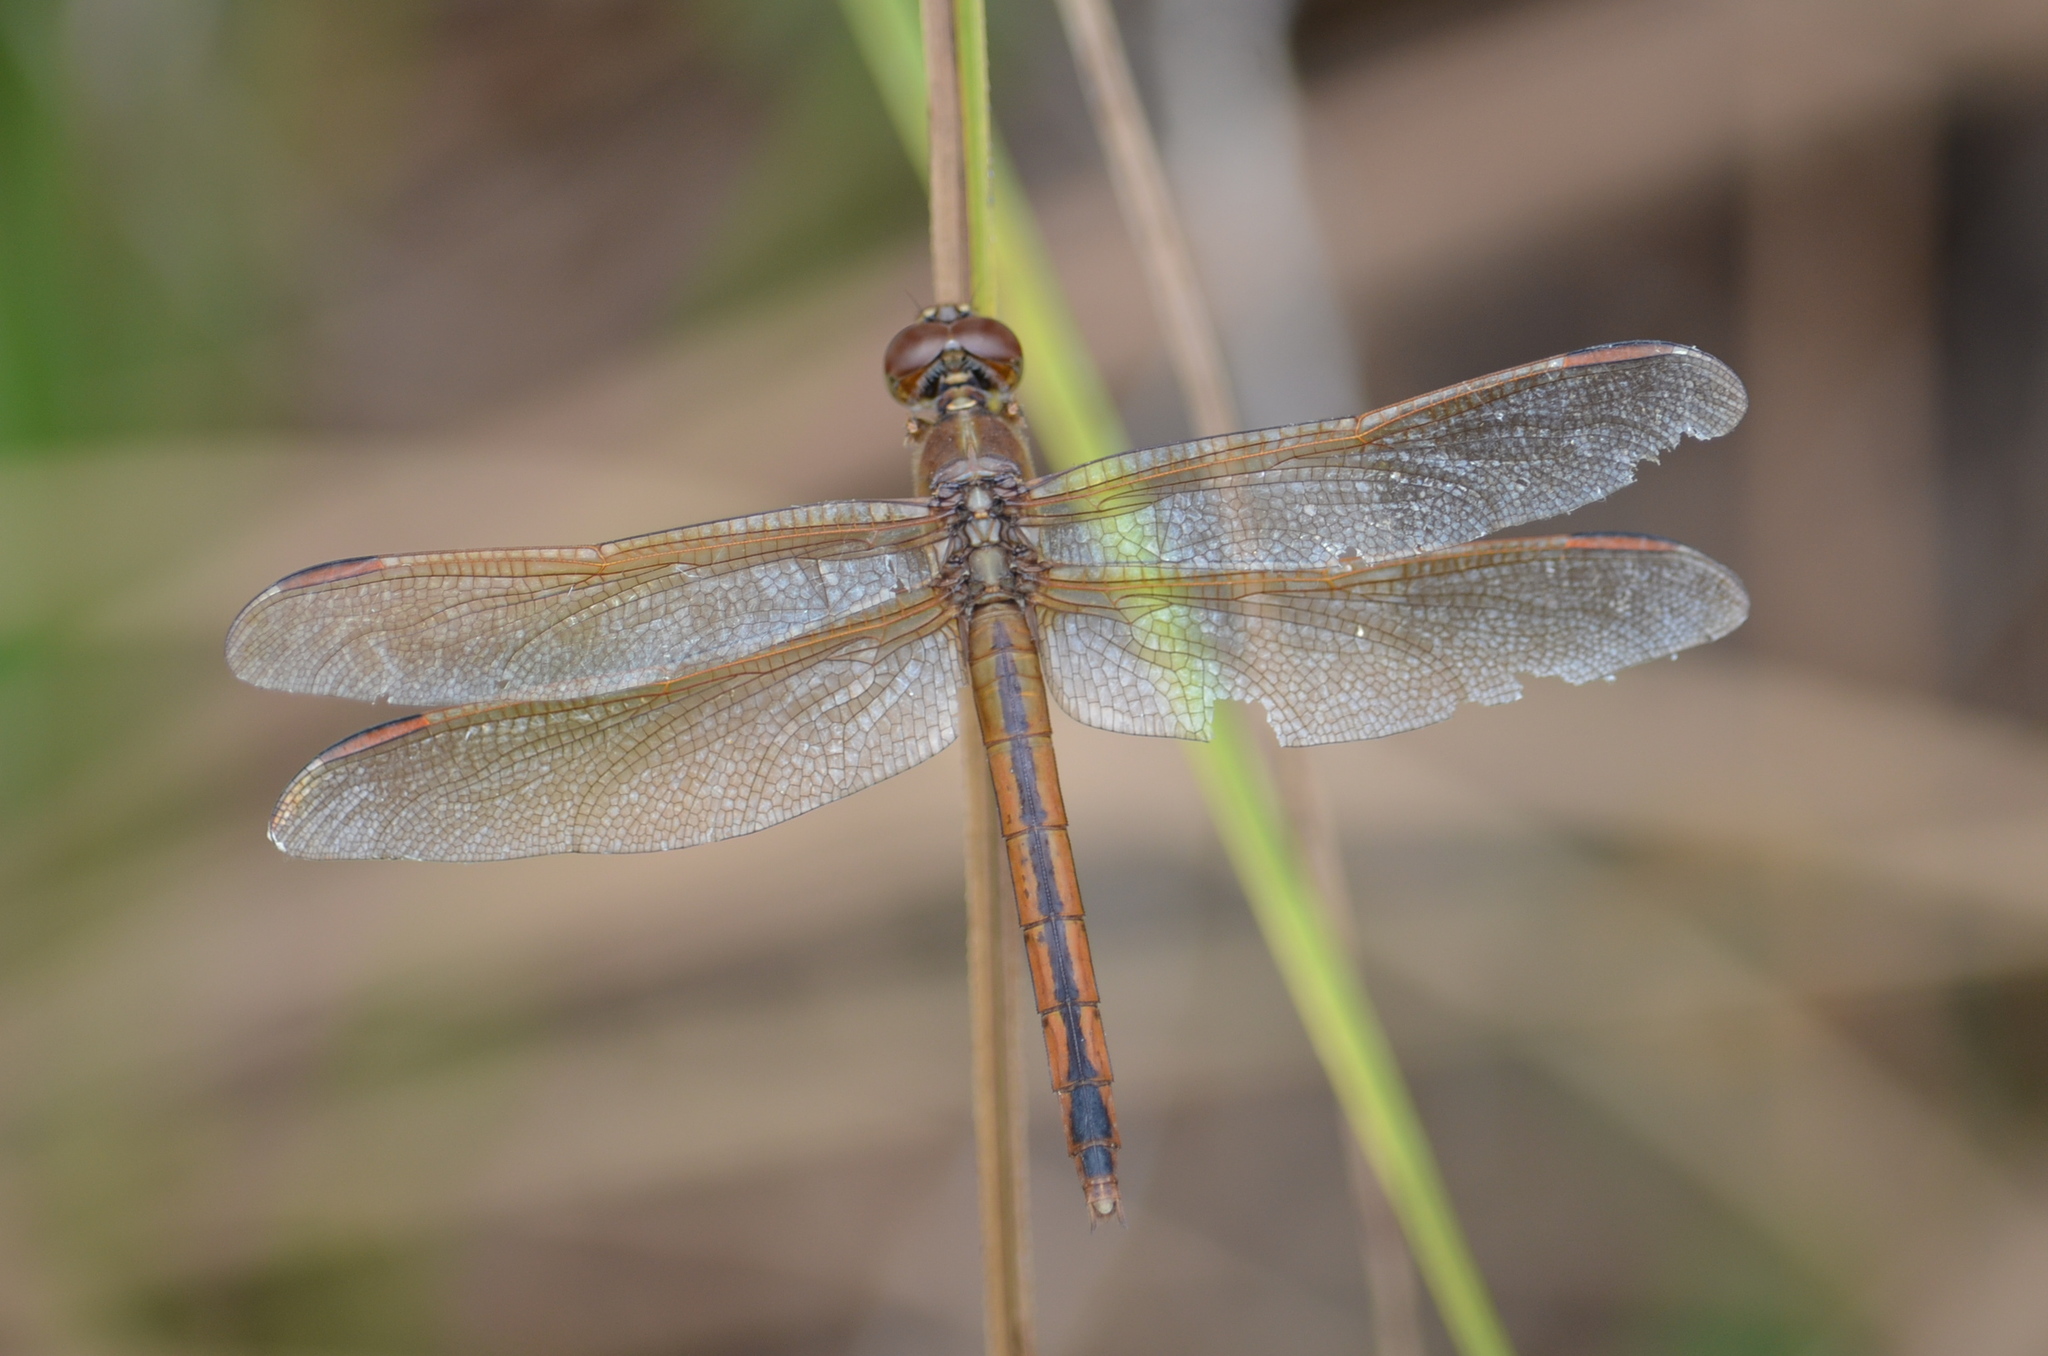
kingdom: Animalia
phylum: Arthropoda
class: Insecta
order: Odonata
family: Libellulidae
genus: Libellula
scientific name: Libellula needhami
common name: Needham's skimmer
